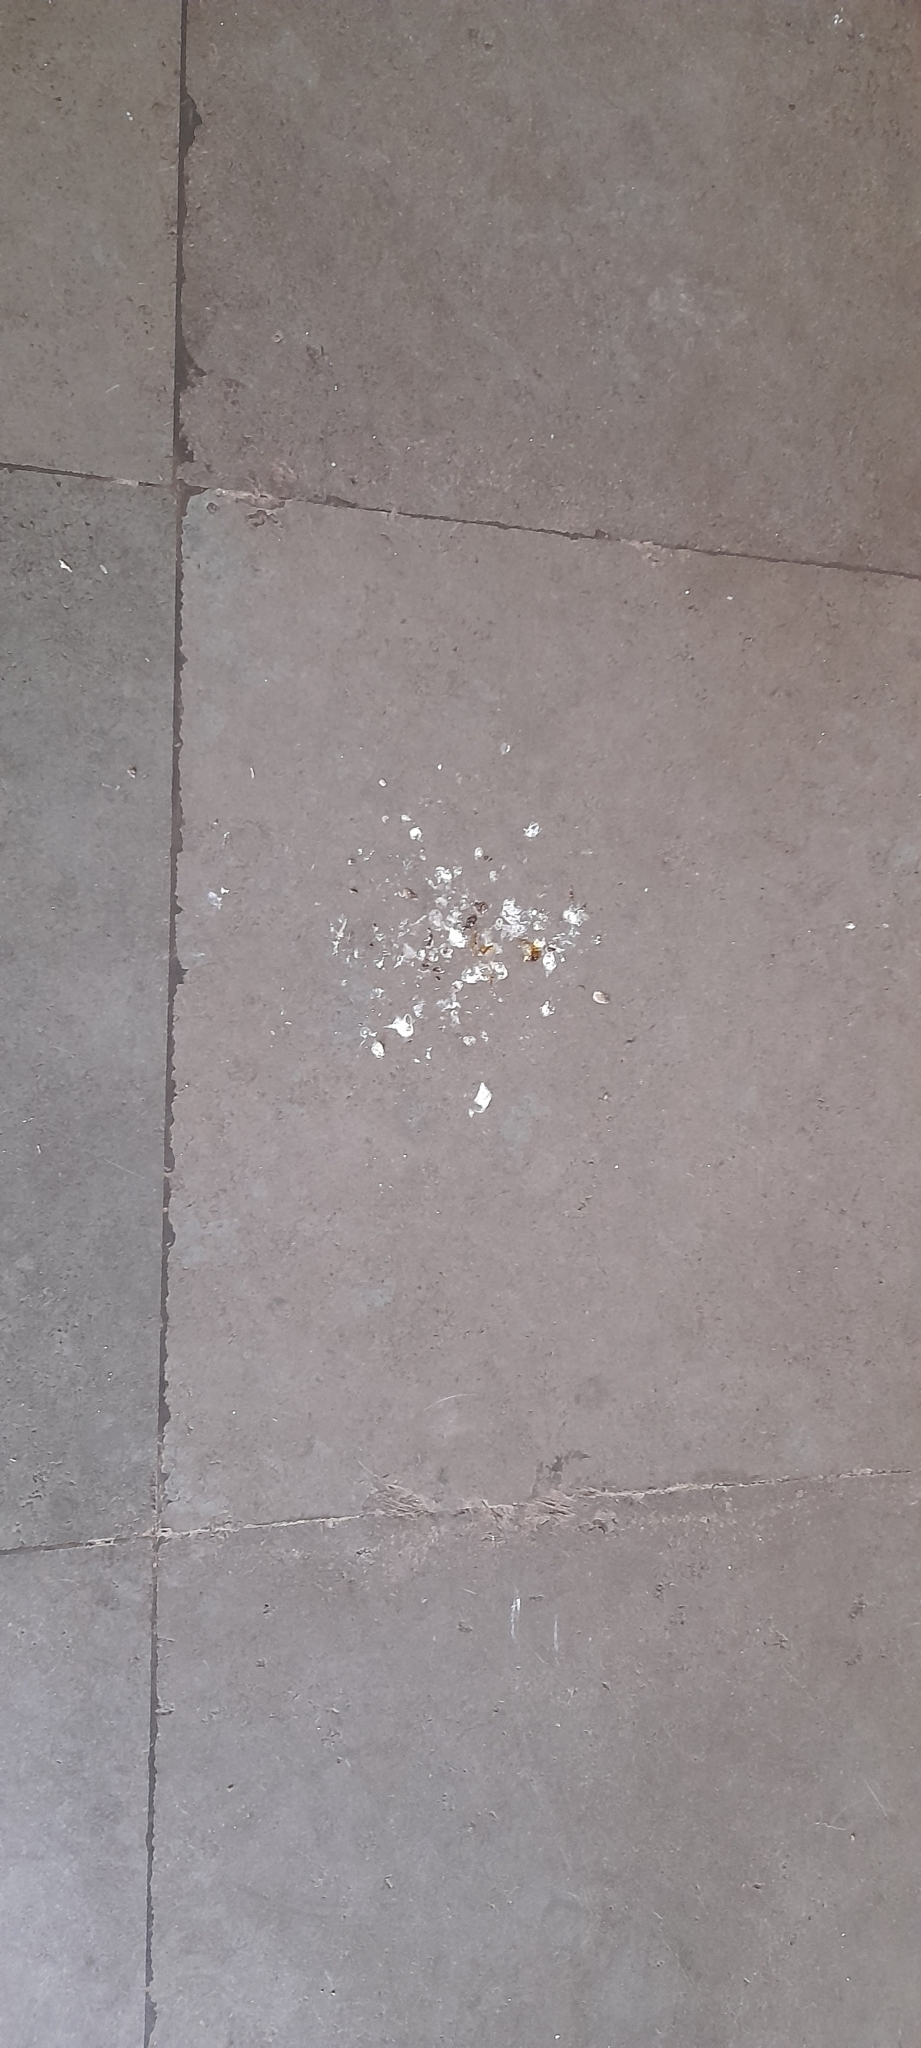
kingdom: Animalia
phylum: Chordata
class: Aves
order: Passeriformes
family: Passeridae
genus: Passer
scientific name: Passer domesticus
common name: House sparrow
